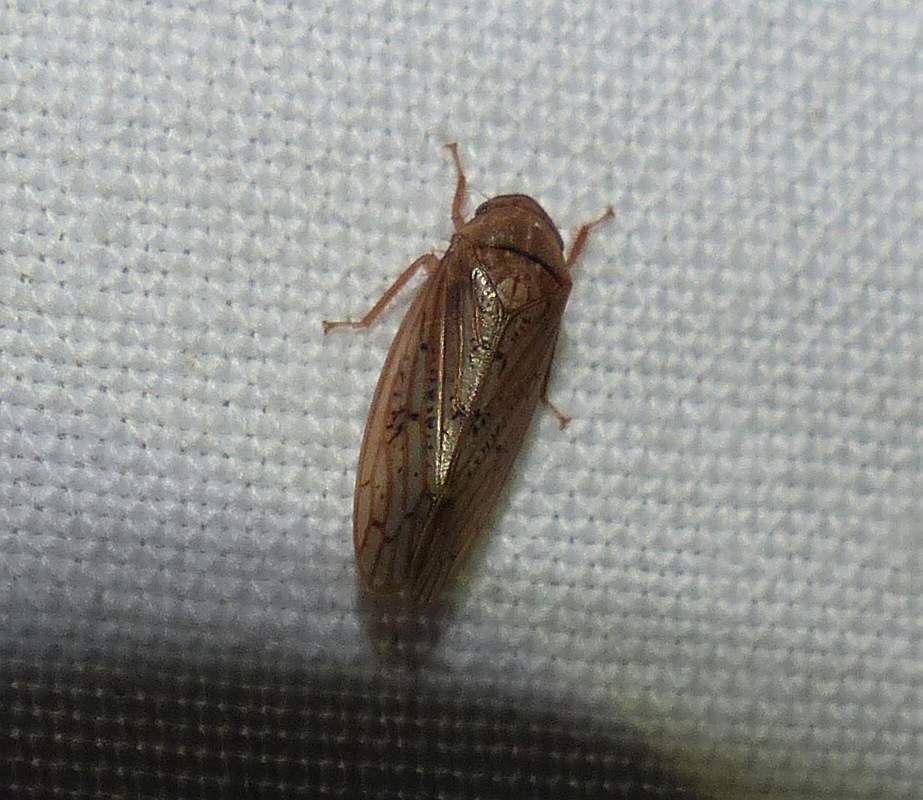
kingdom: Animalia
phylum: Arthropoda
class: Insecta
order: Hemiptera
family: Cicadellidae
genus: Ponana
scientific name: Ponana rubida
